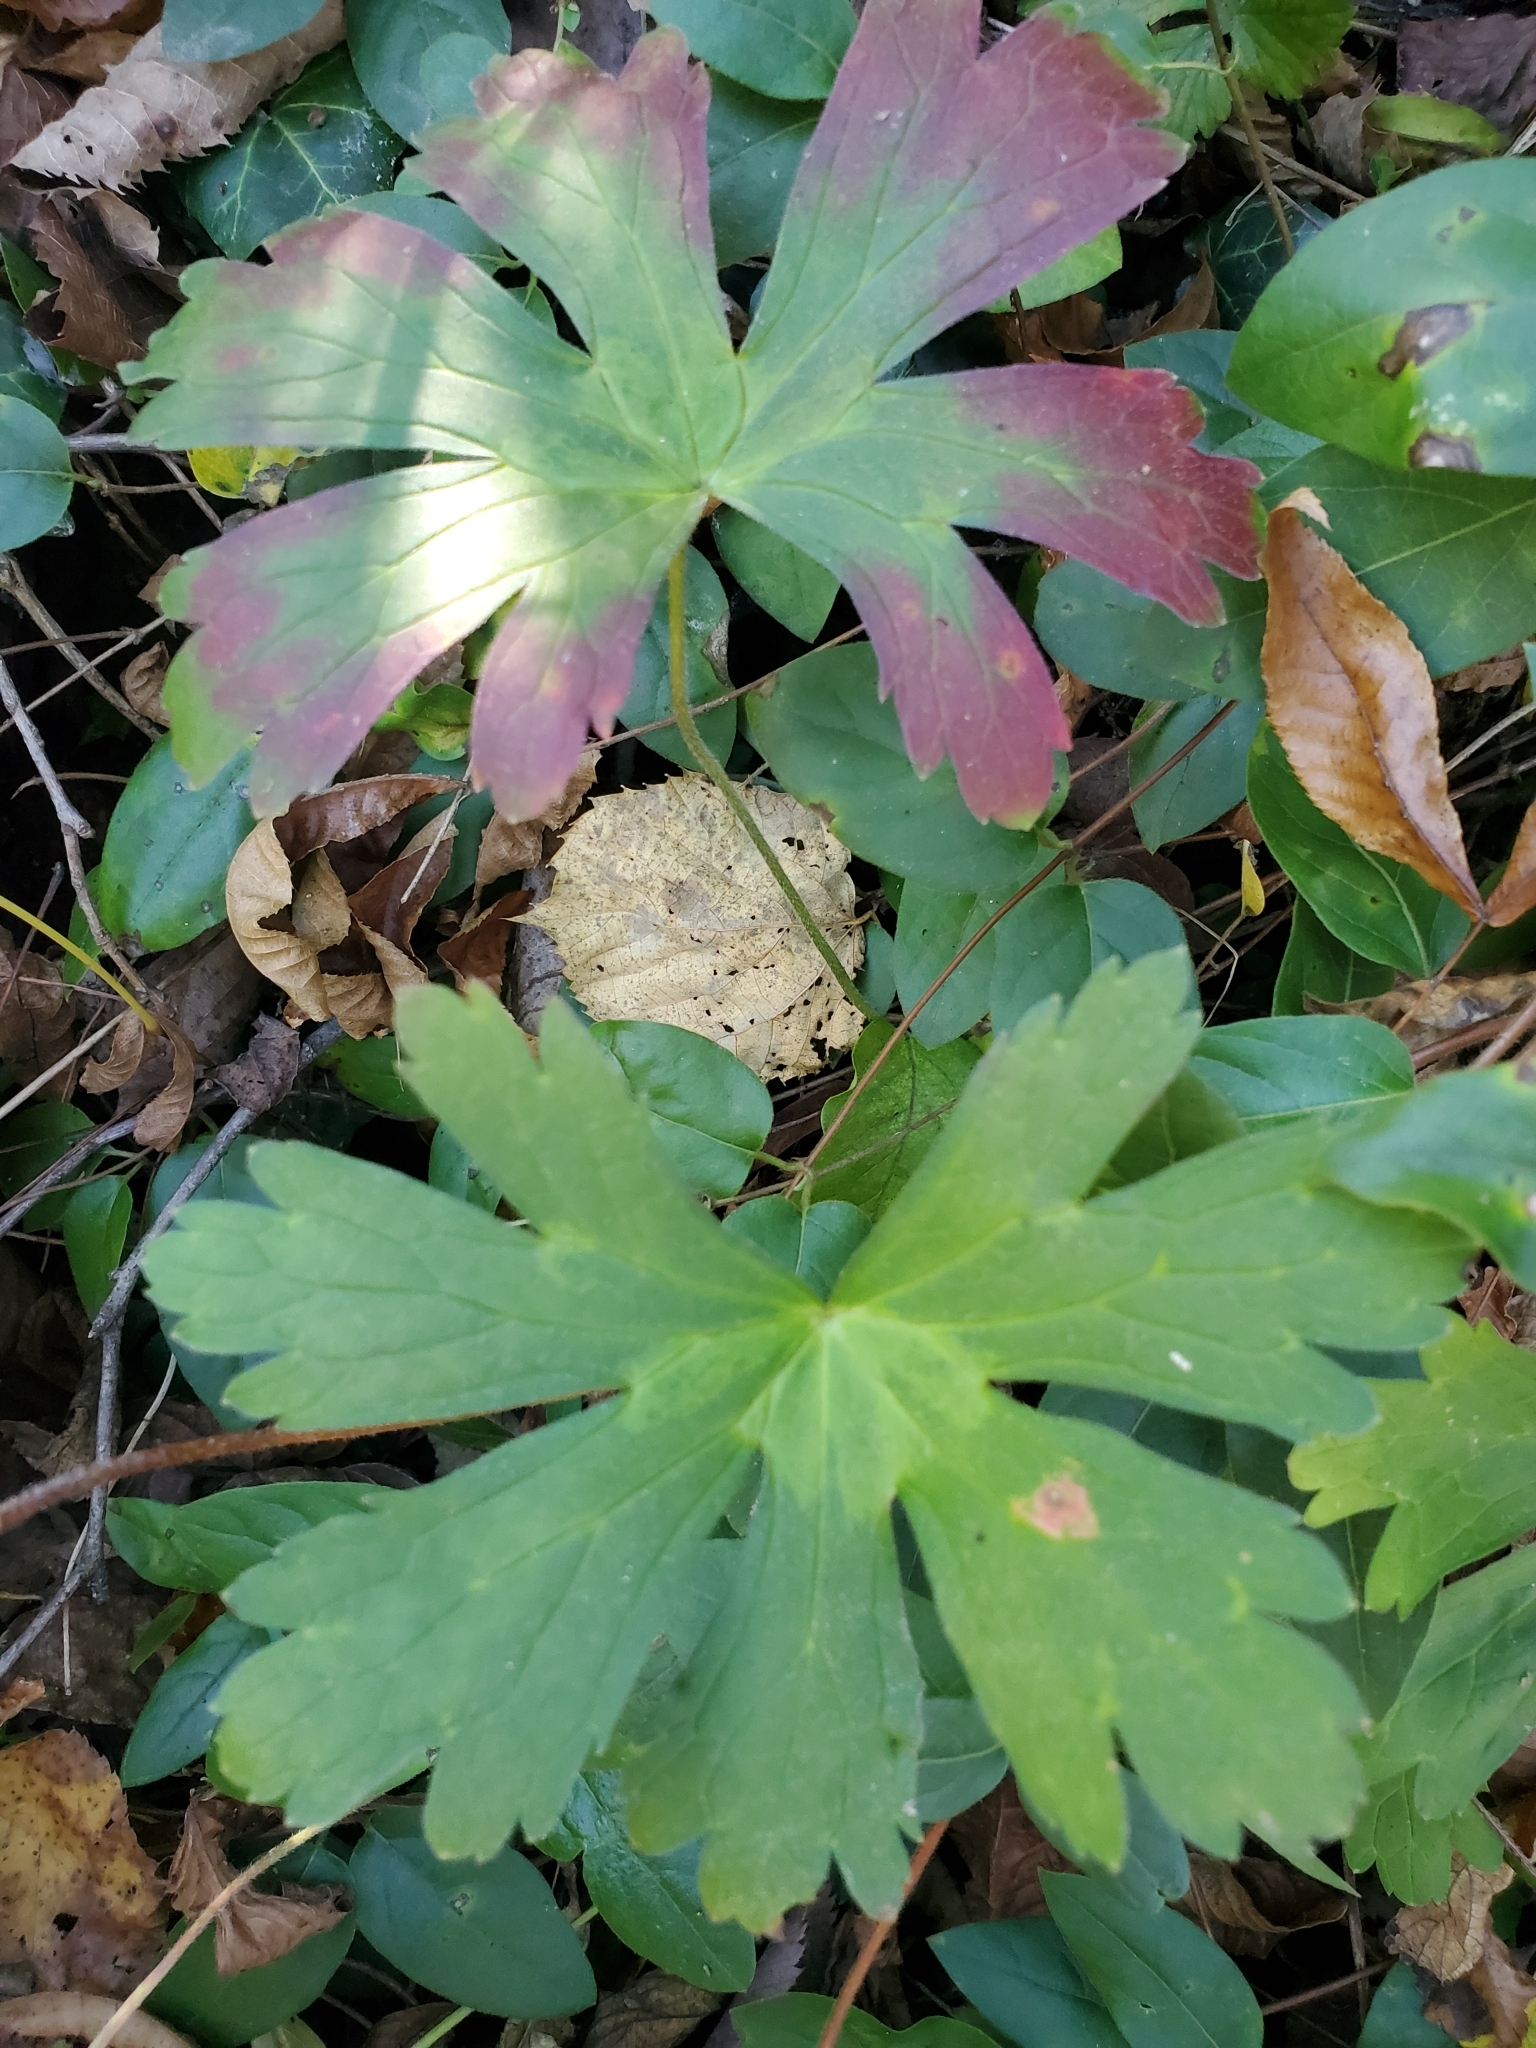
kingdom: Plantae
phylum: Tracheophyta
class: Magnoliopsida
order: Geraniales
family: Geraniaceae
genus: Geranium
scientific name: Geranium maculatum
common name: Spotted geranium
